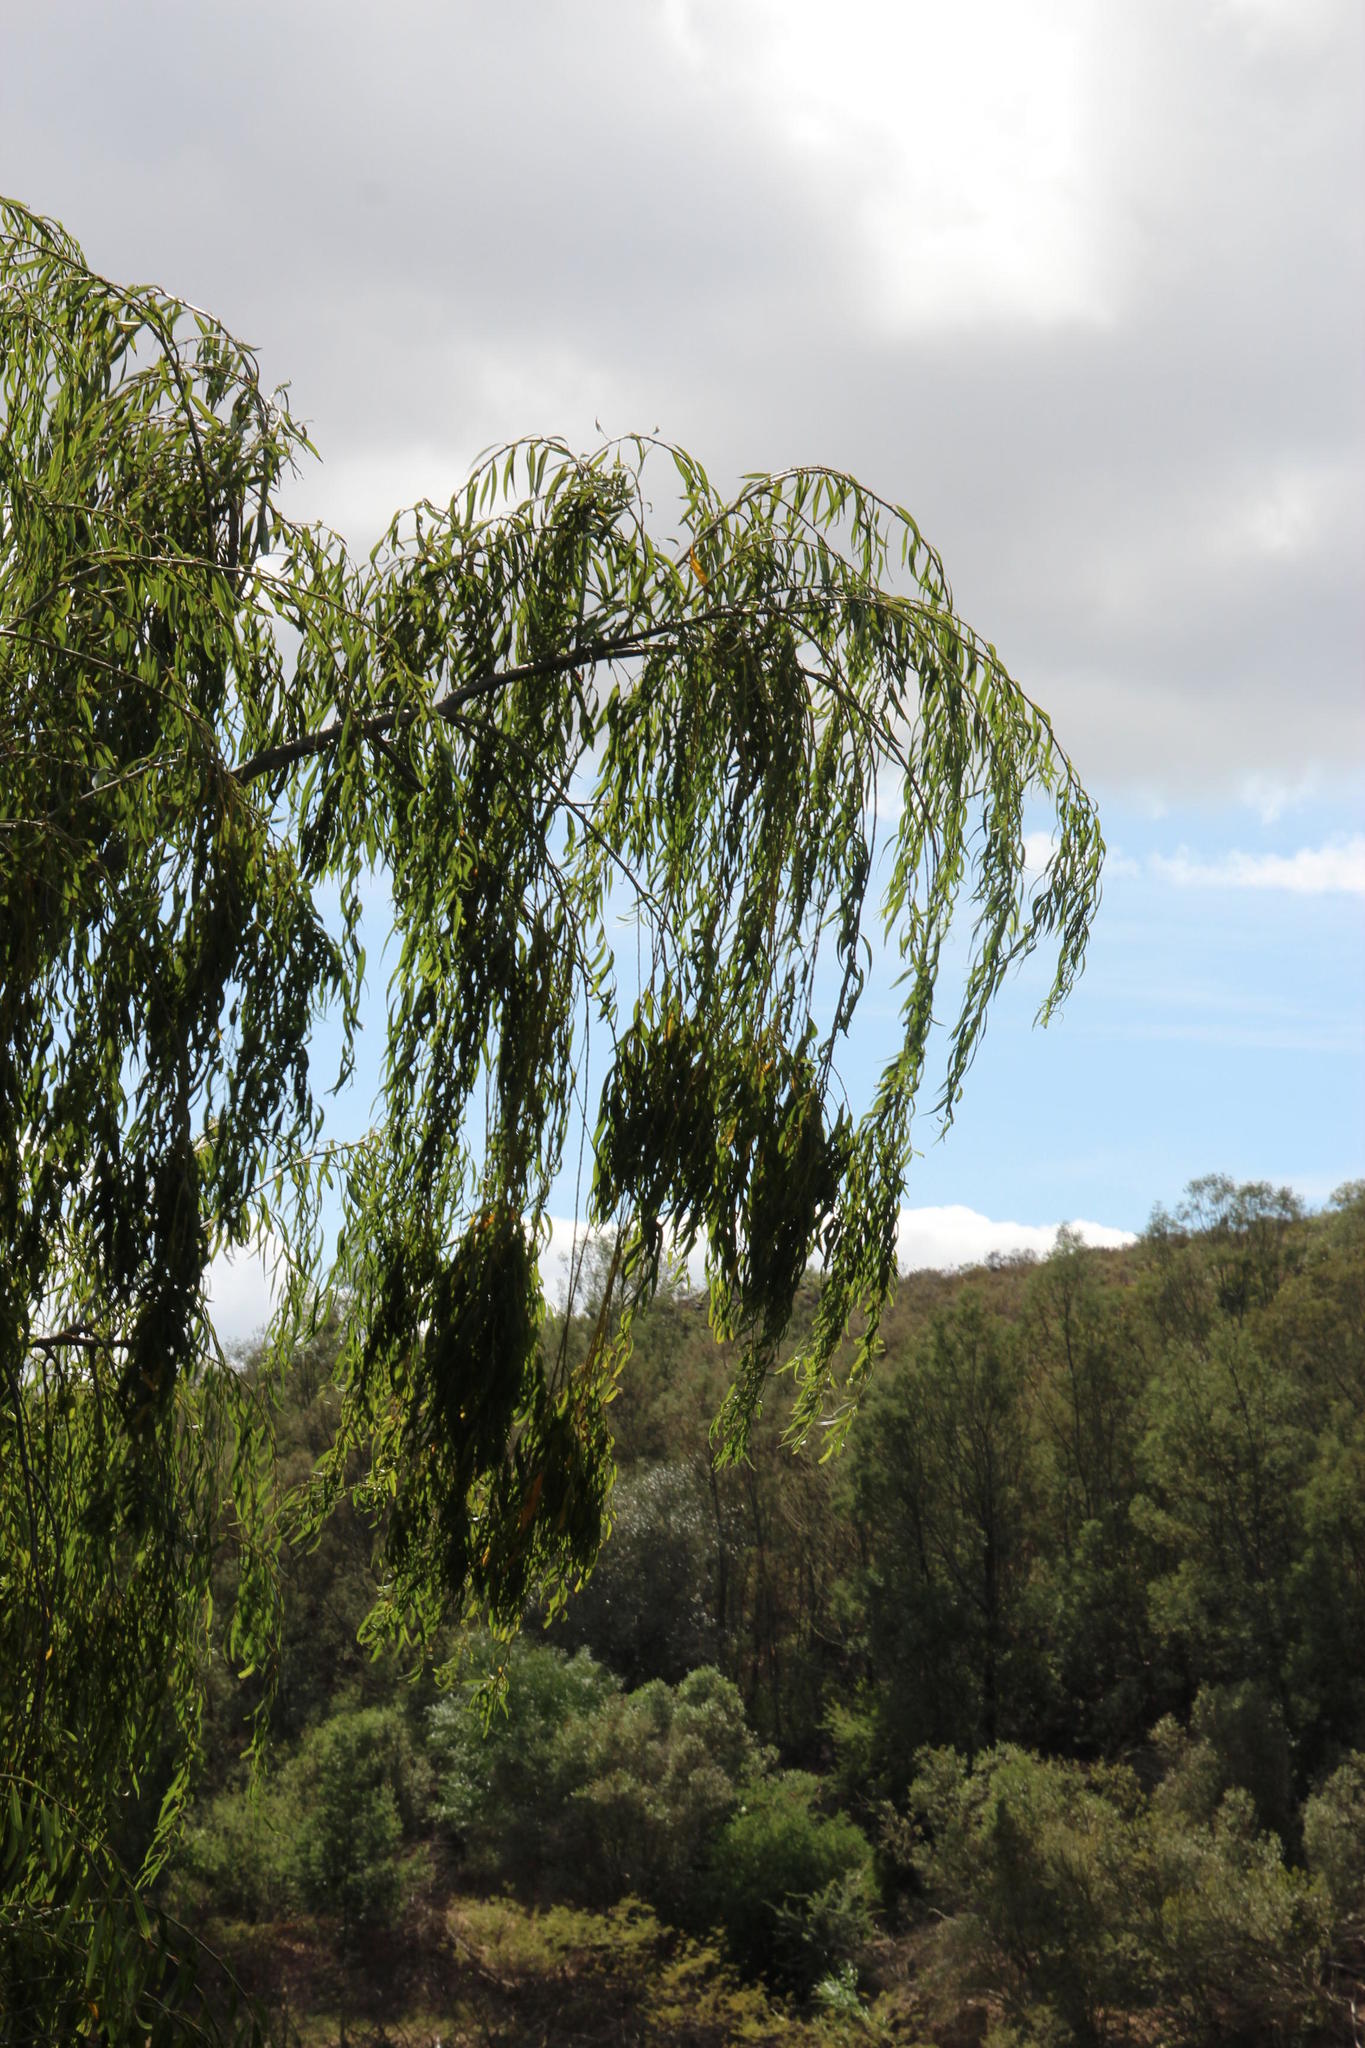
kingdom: Plantae
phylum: Tracheophyta
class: Magnoliopsida
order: Malpighiales
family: Salicaceae
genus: Salix
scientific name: Salix babylonica
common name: Weeping willow
